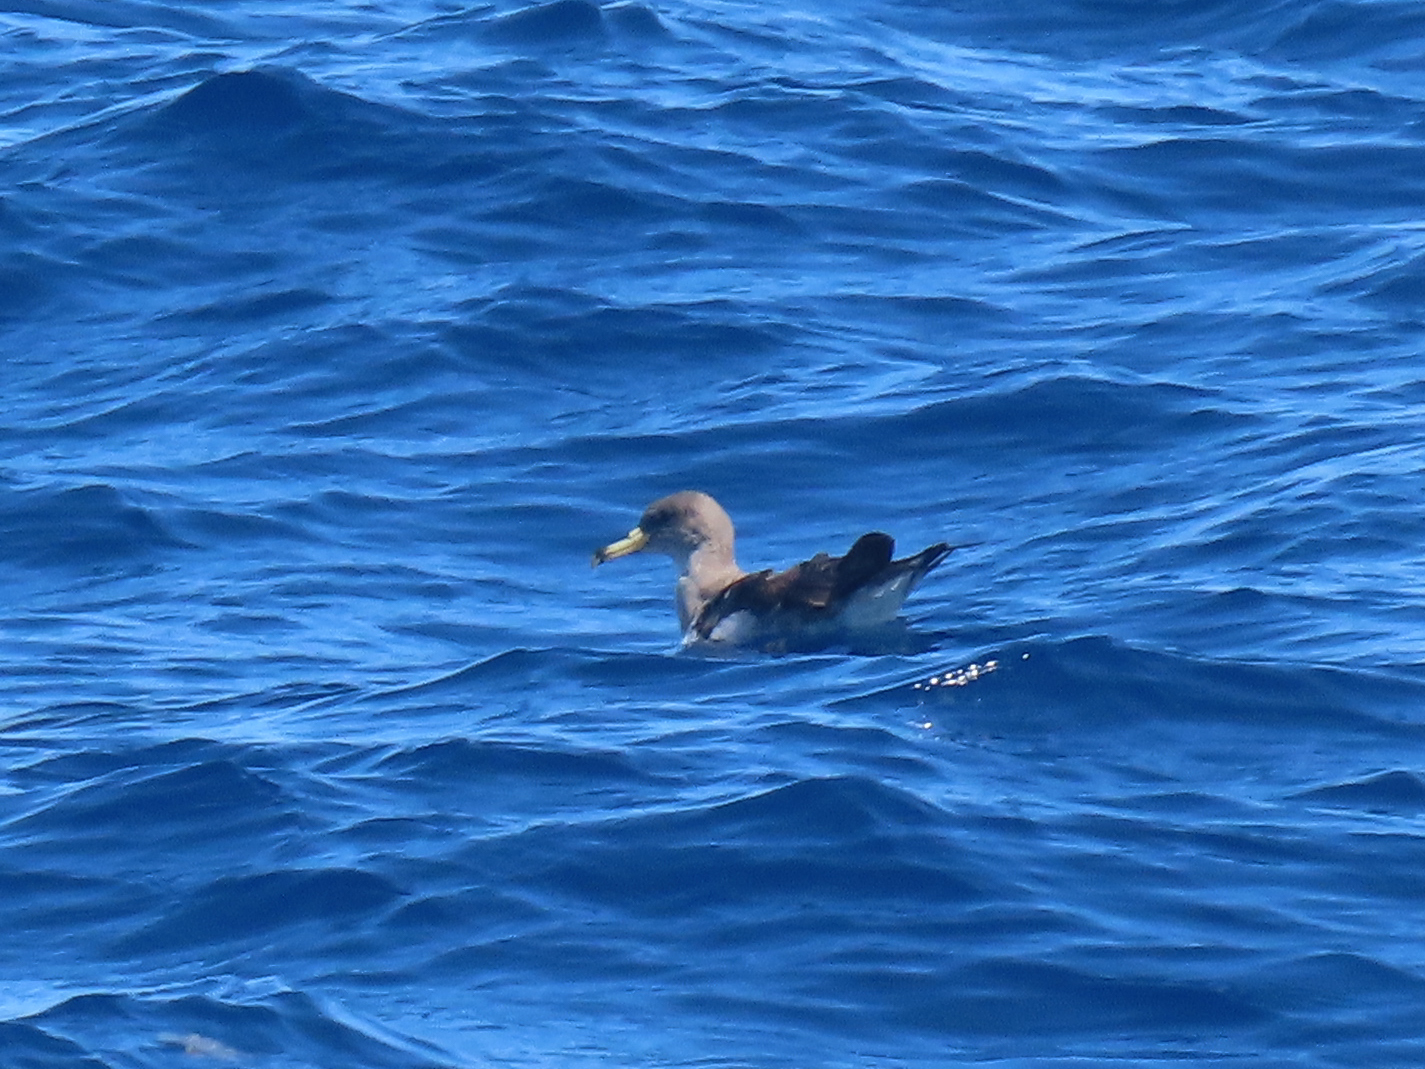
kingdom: Animalia
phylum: Chordata
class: Aves
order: Procellariiformes
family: Procellariidae
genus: Calonectris
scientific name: Calonectris diomedea
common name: Cory's shearwater
